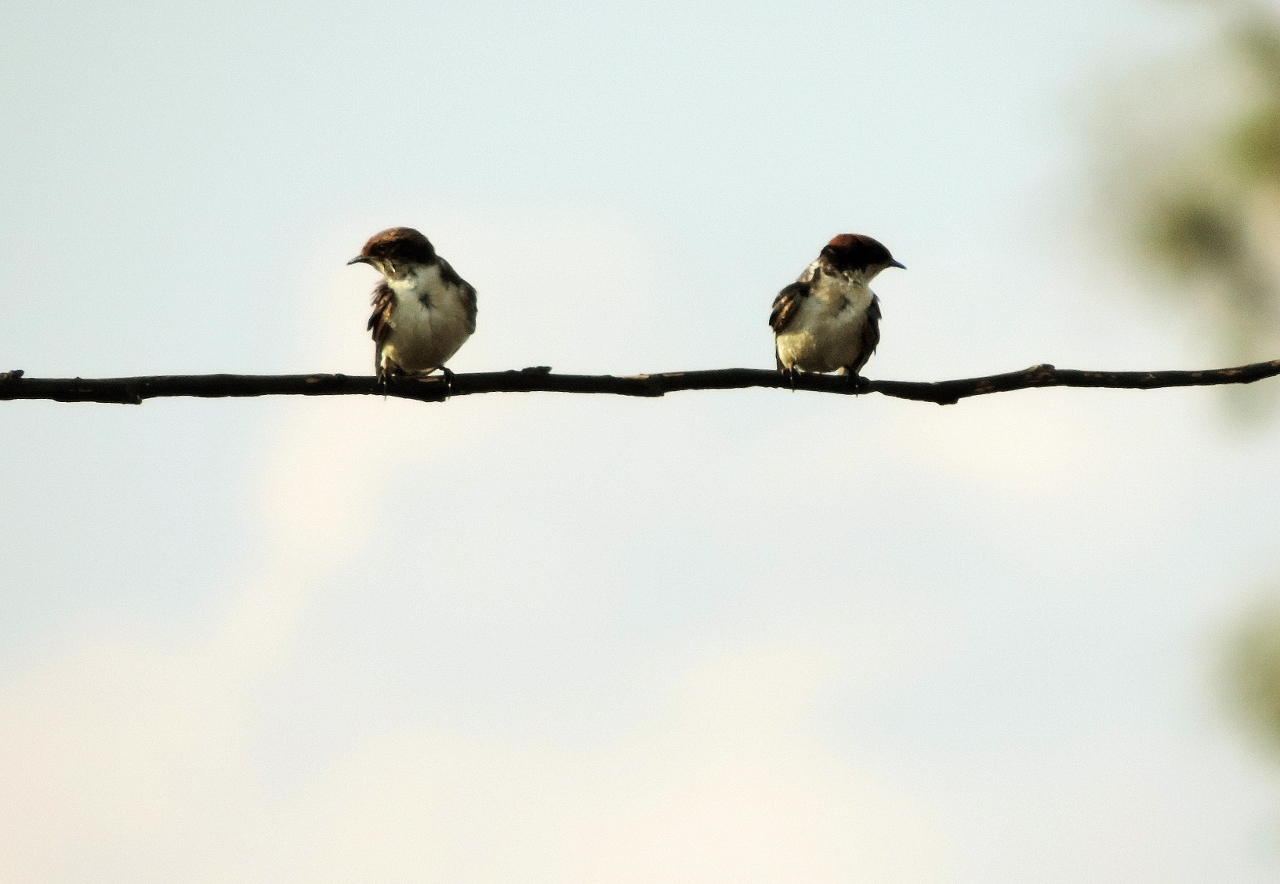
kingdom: Animalia
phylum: Chordata
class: Aves
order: Passeriformes
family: Hirundinidae
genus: Hirundo
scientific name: Hirundo smithii
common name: Wire-tailed swallow
